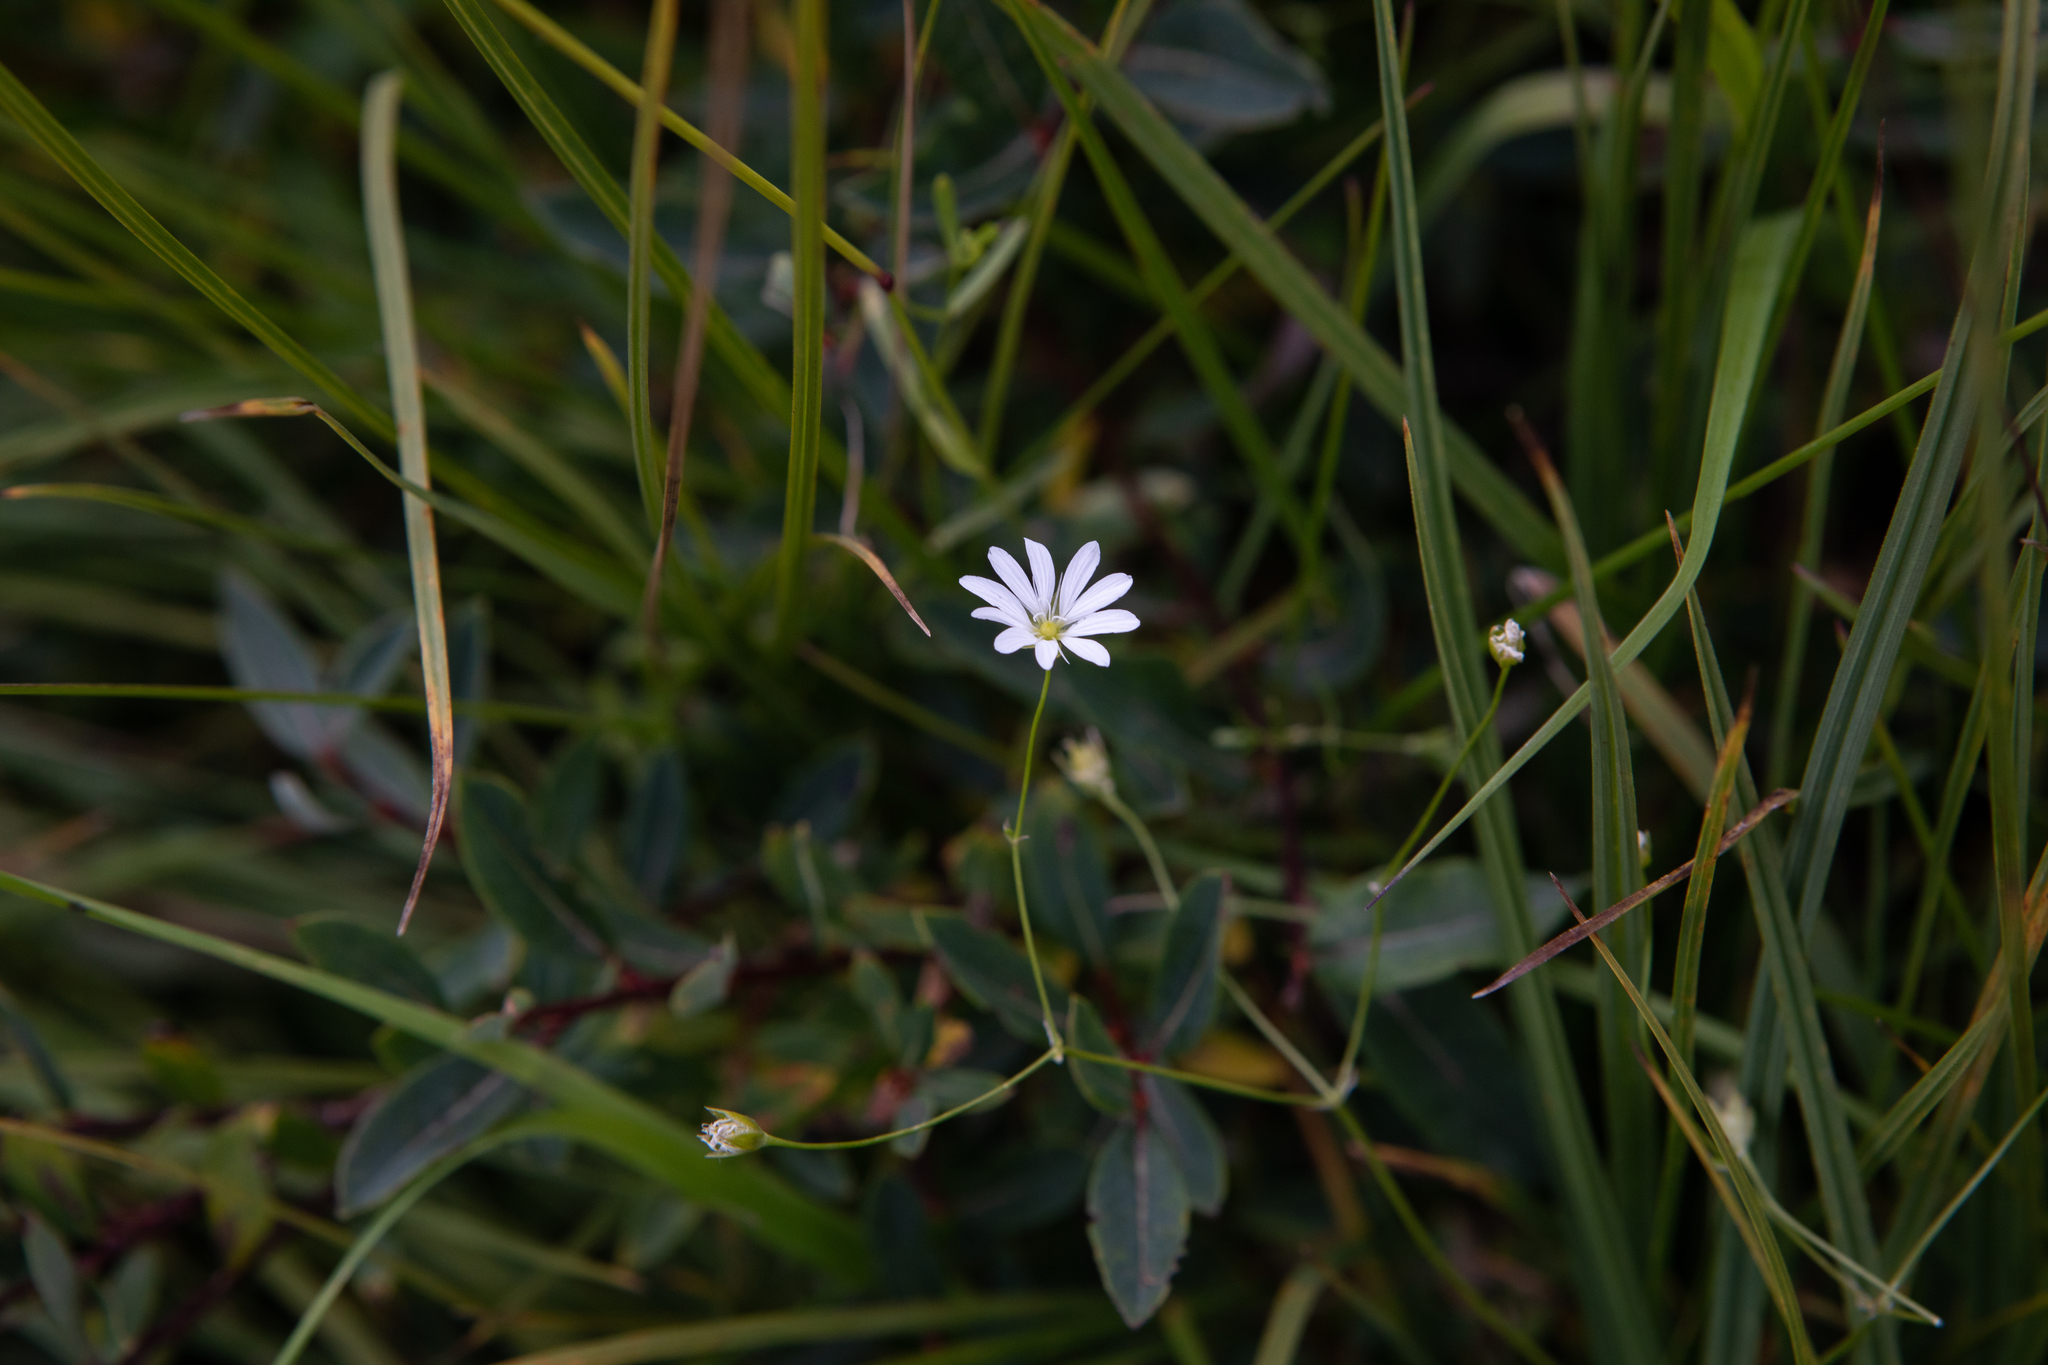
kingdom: Plantae
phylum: Tracheophyta
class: Magnoliopsida
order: Caryophyllales
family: Caryophyllaceae
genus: Stellaria
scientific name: Stellaria graminea
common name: Grass-like starwort
